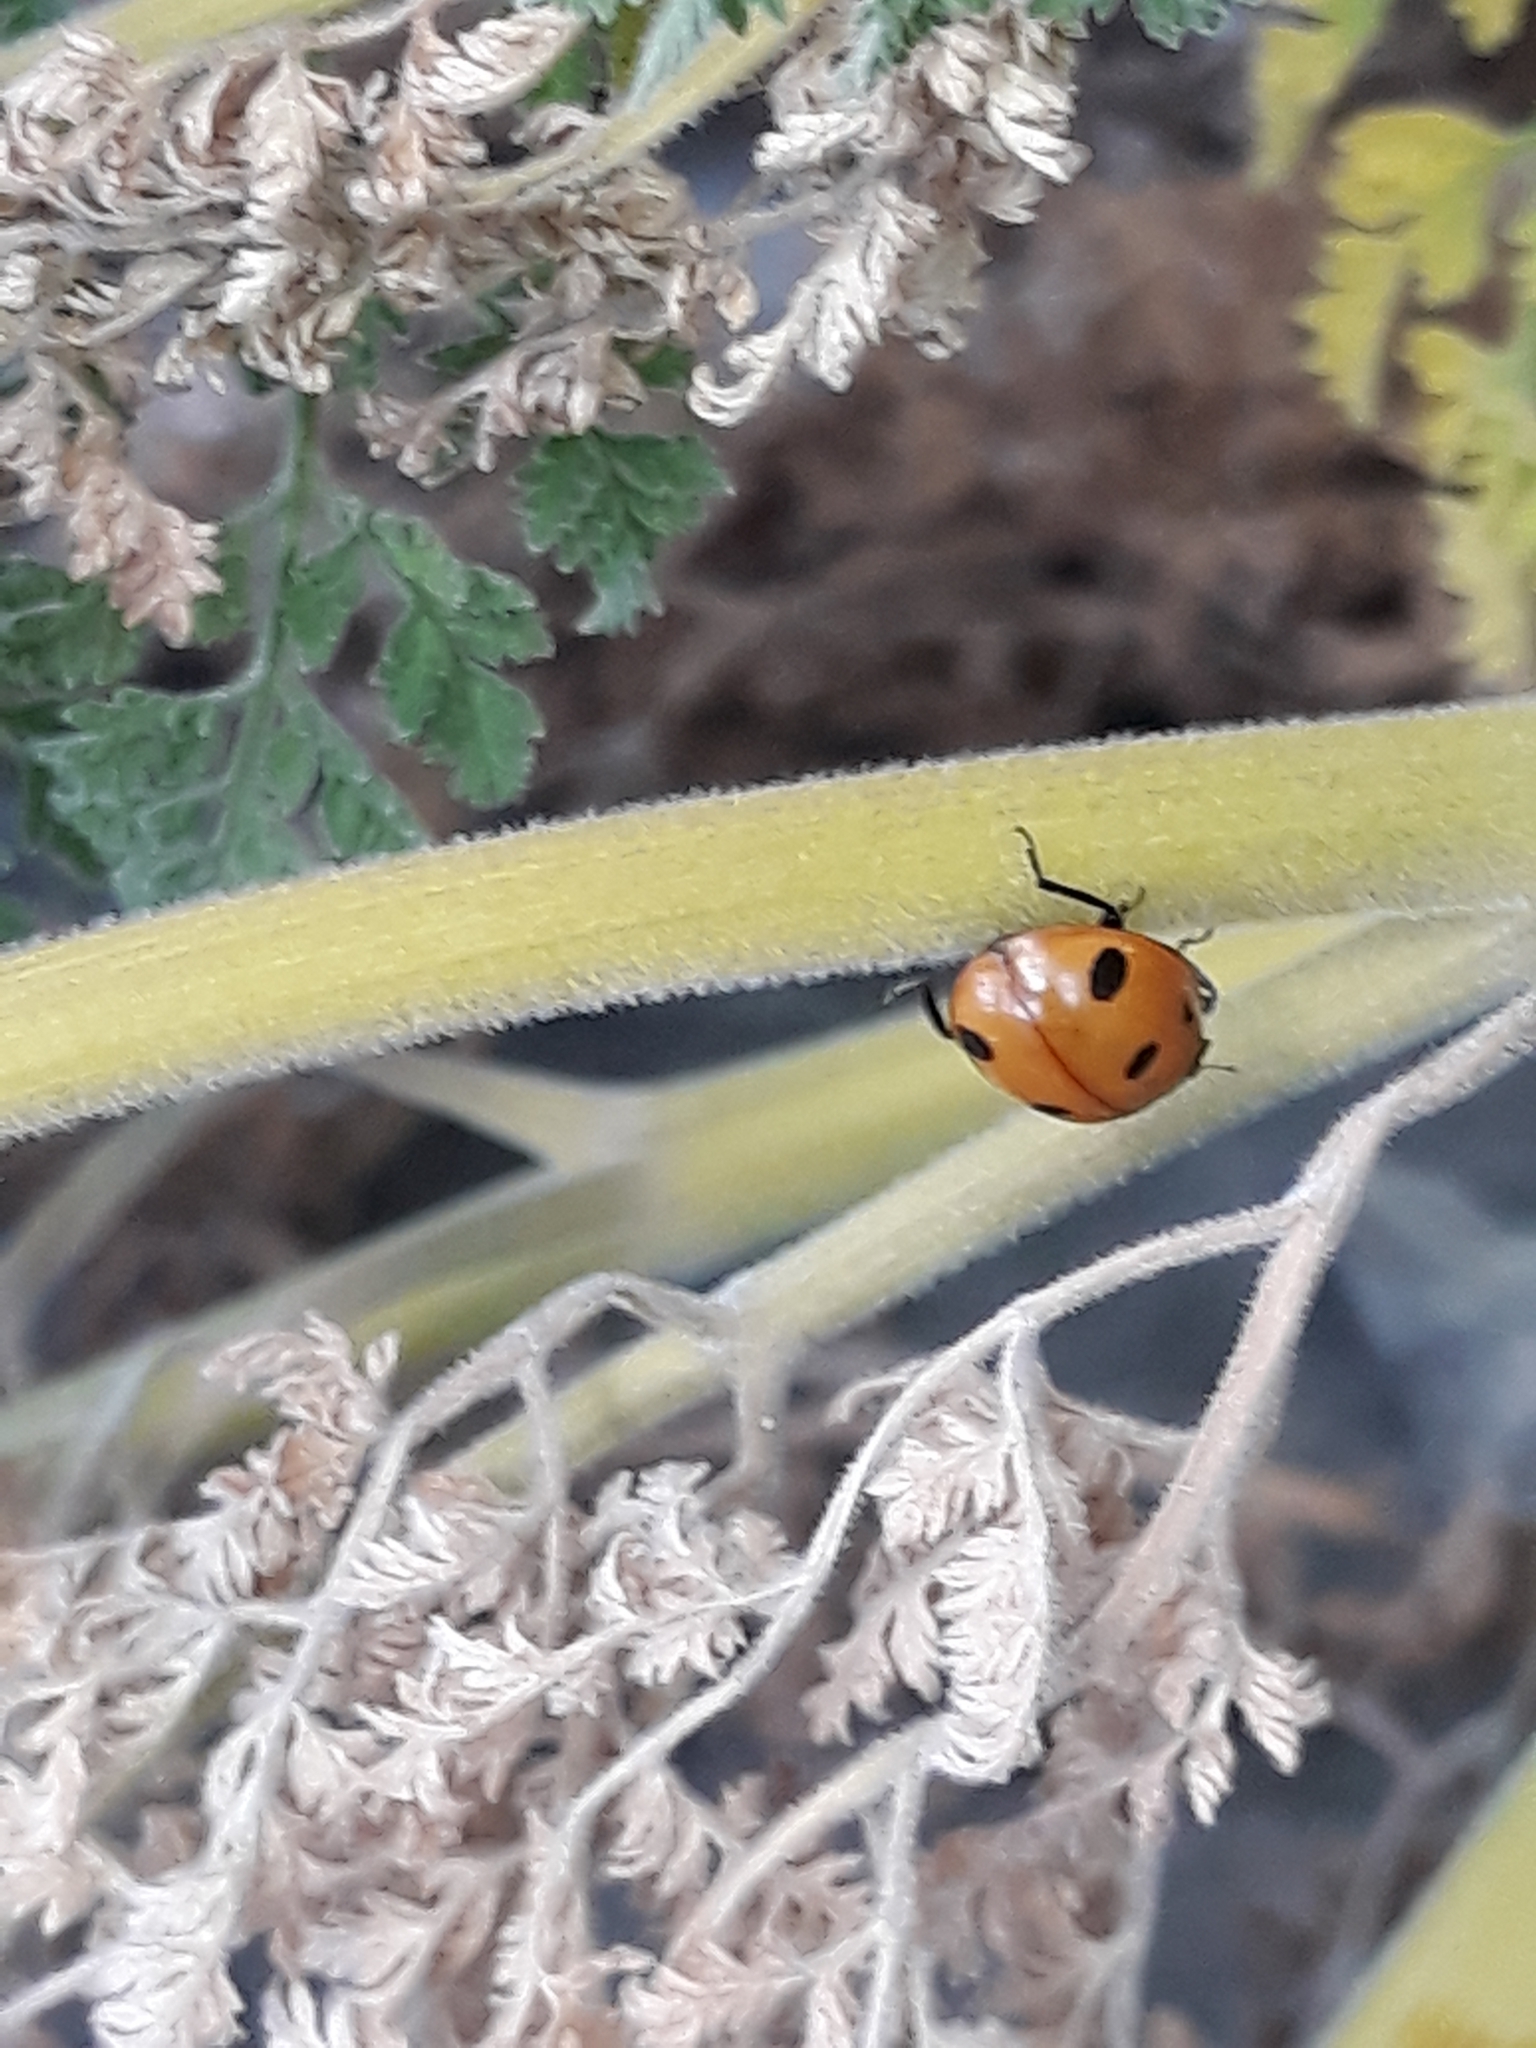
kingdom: Animalia
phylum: Arthropoda
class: Insecta
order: Coleoptera
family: Coccinellidae
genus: Coccinella
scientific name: Coccinella algerica
